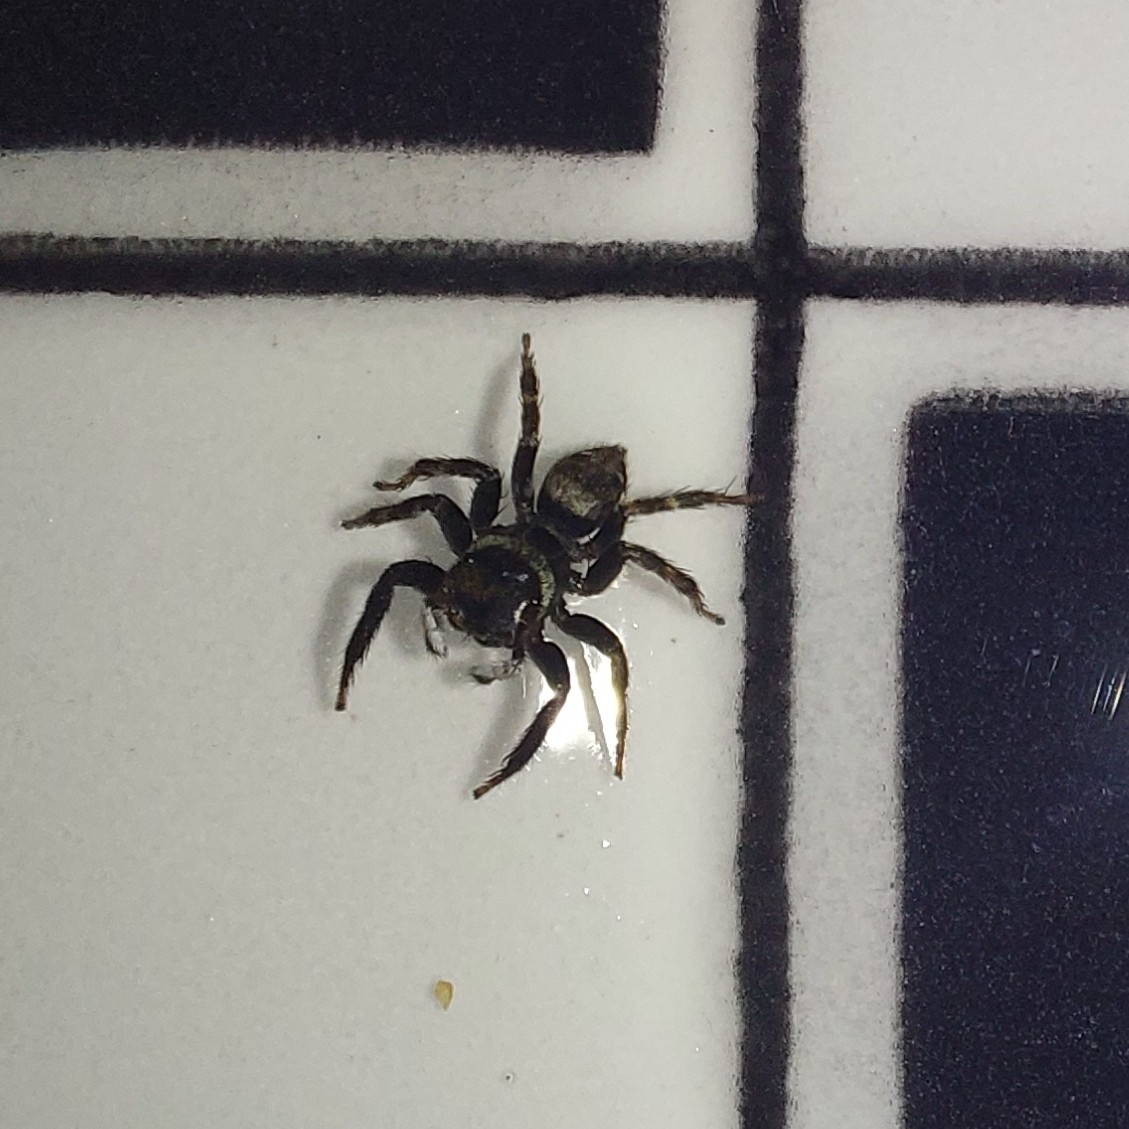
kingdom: Animalia
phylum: Arthropoda
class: Arachnida
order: Araneae
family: Salticidae
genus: Hasarius
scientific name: Hasarius adansoni
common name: Jumping spider
